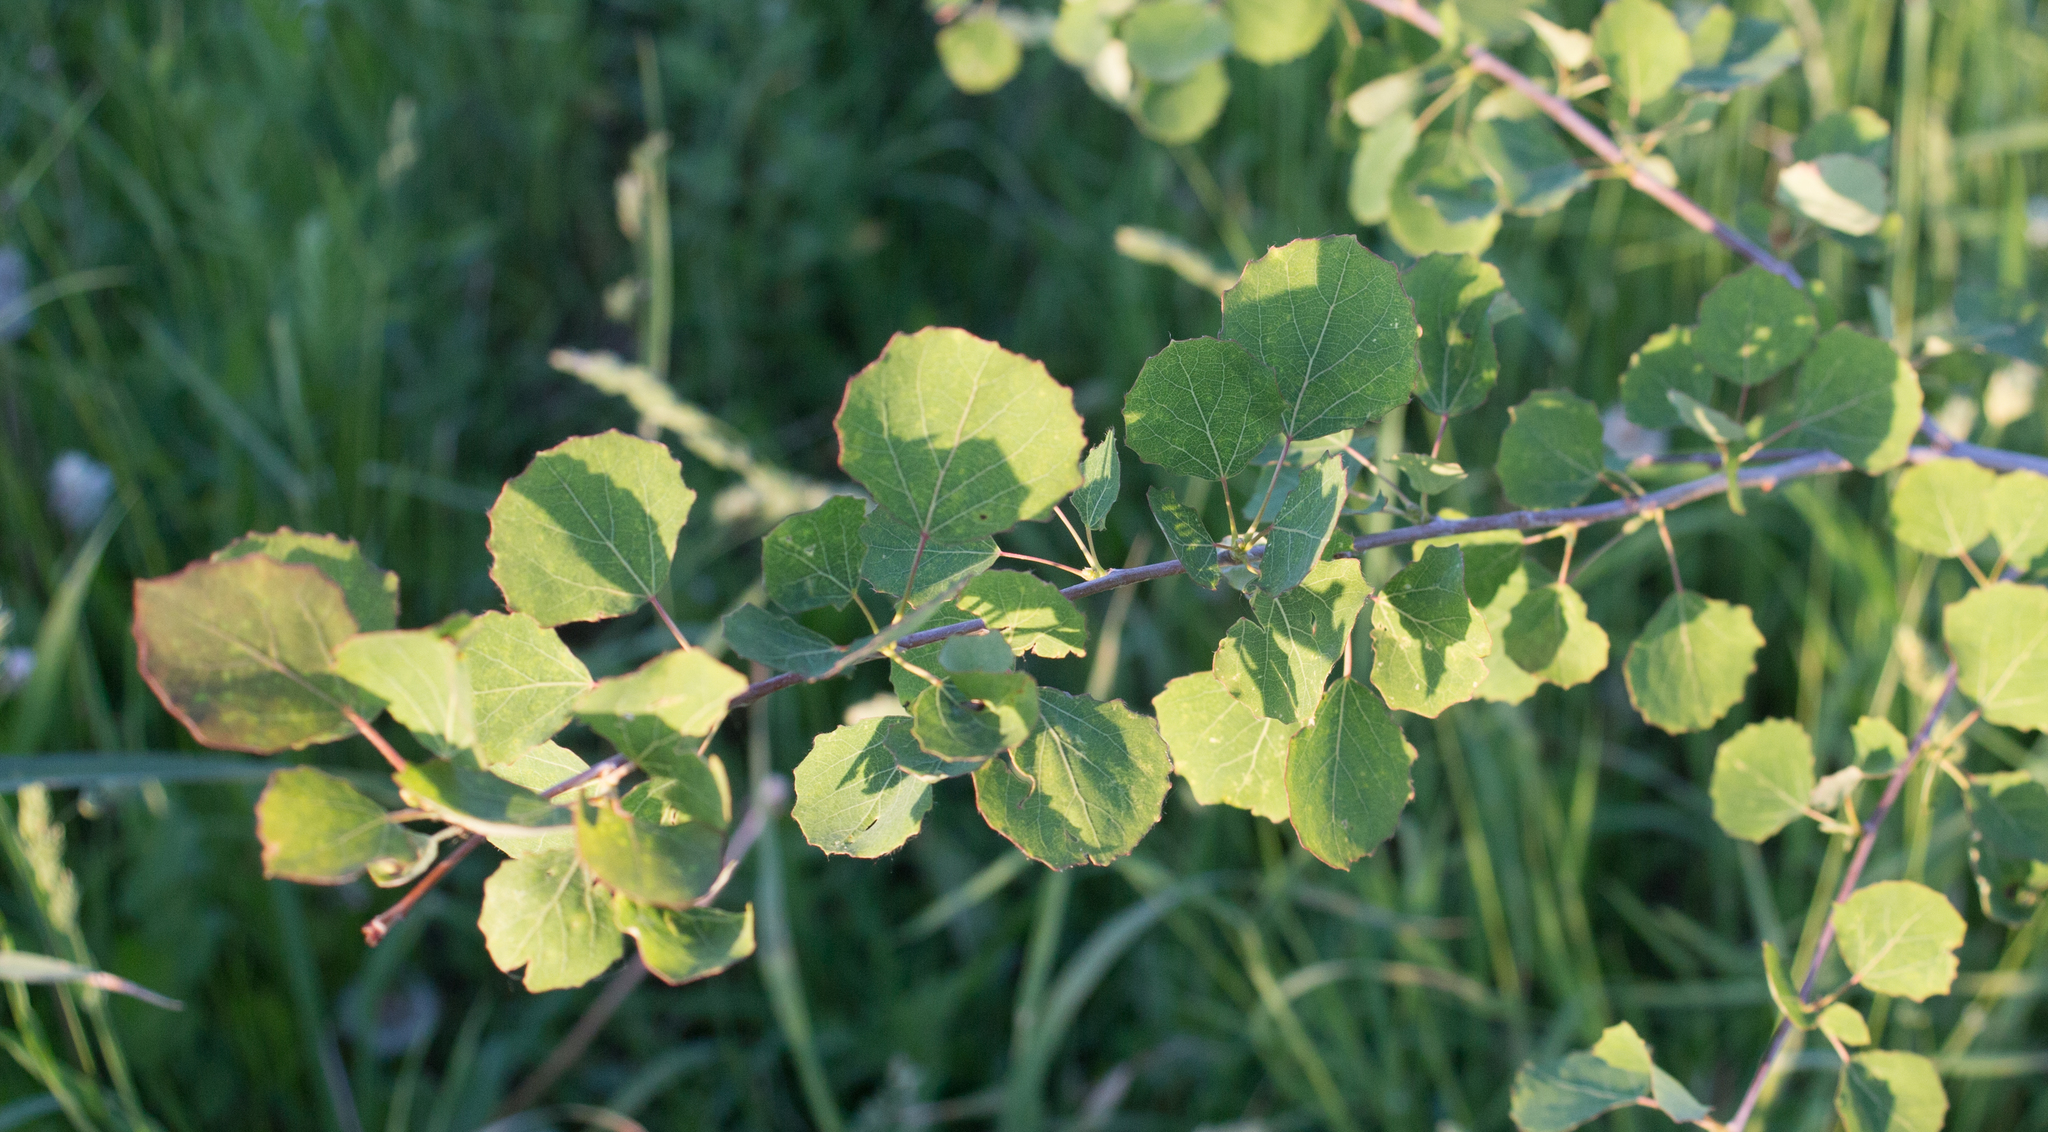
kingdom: Plantae
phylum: Tracheophyta
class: Magnoliopsida
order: Malpighiales
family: Salicaceae
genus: Populus
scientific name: Populus tremula
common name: European aspen
